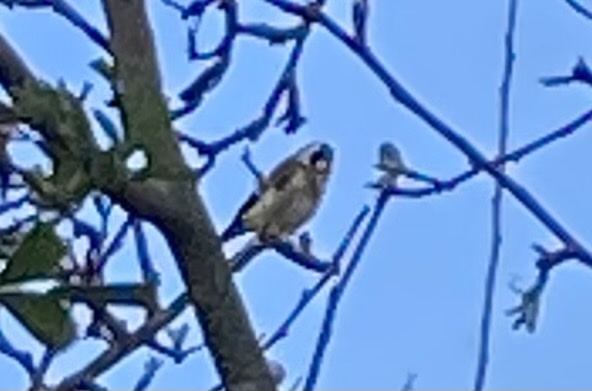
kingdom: Animalia
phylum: Chordata
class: Aves
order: Passeriformes
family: Fringillidae
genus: Carduelis
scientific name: Carduelis carduelis
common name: European goldfinch
